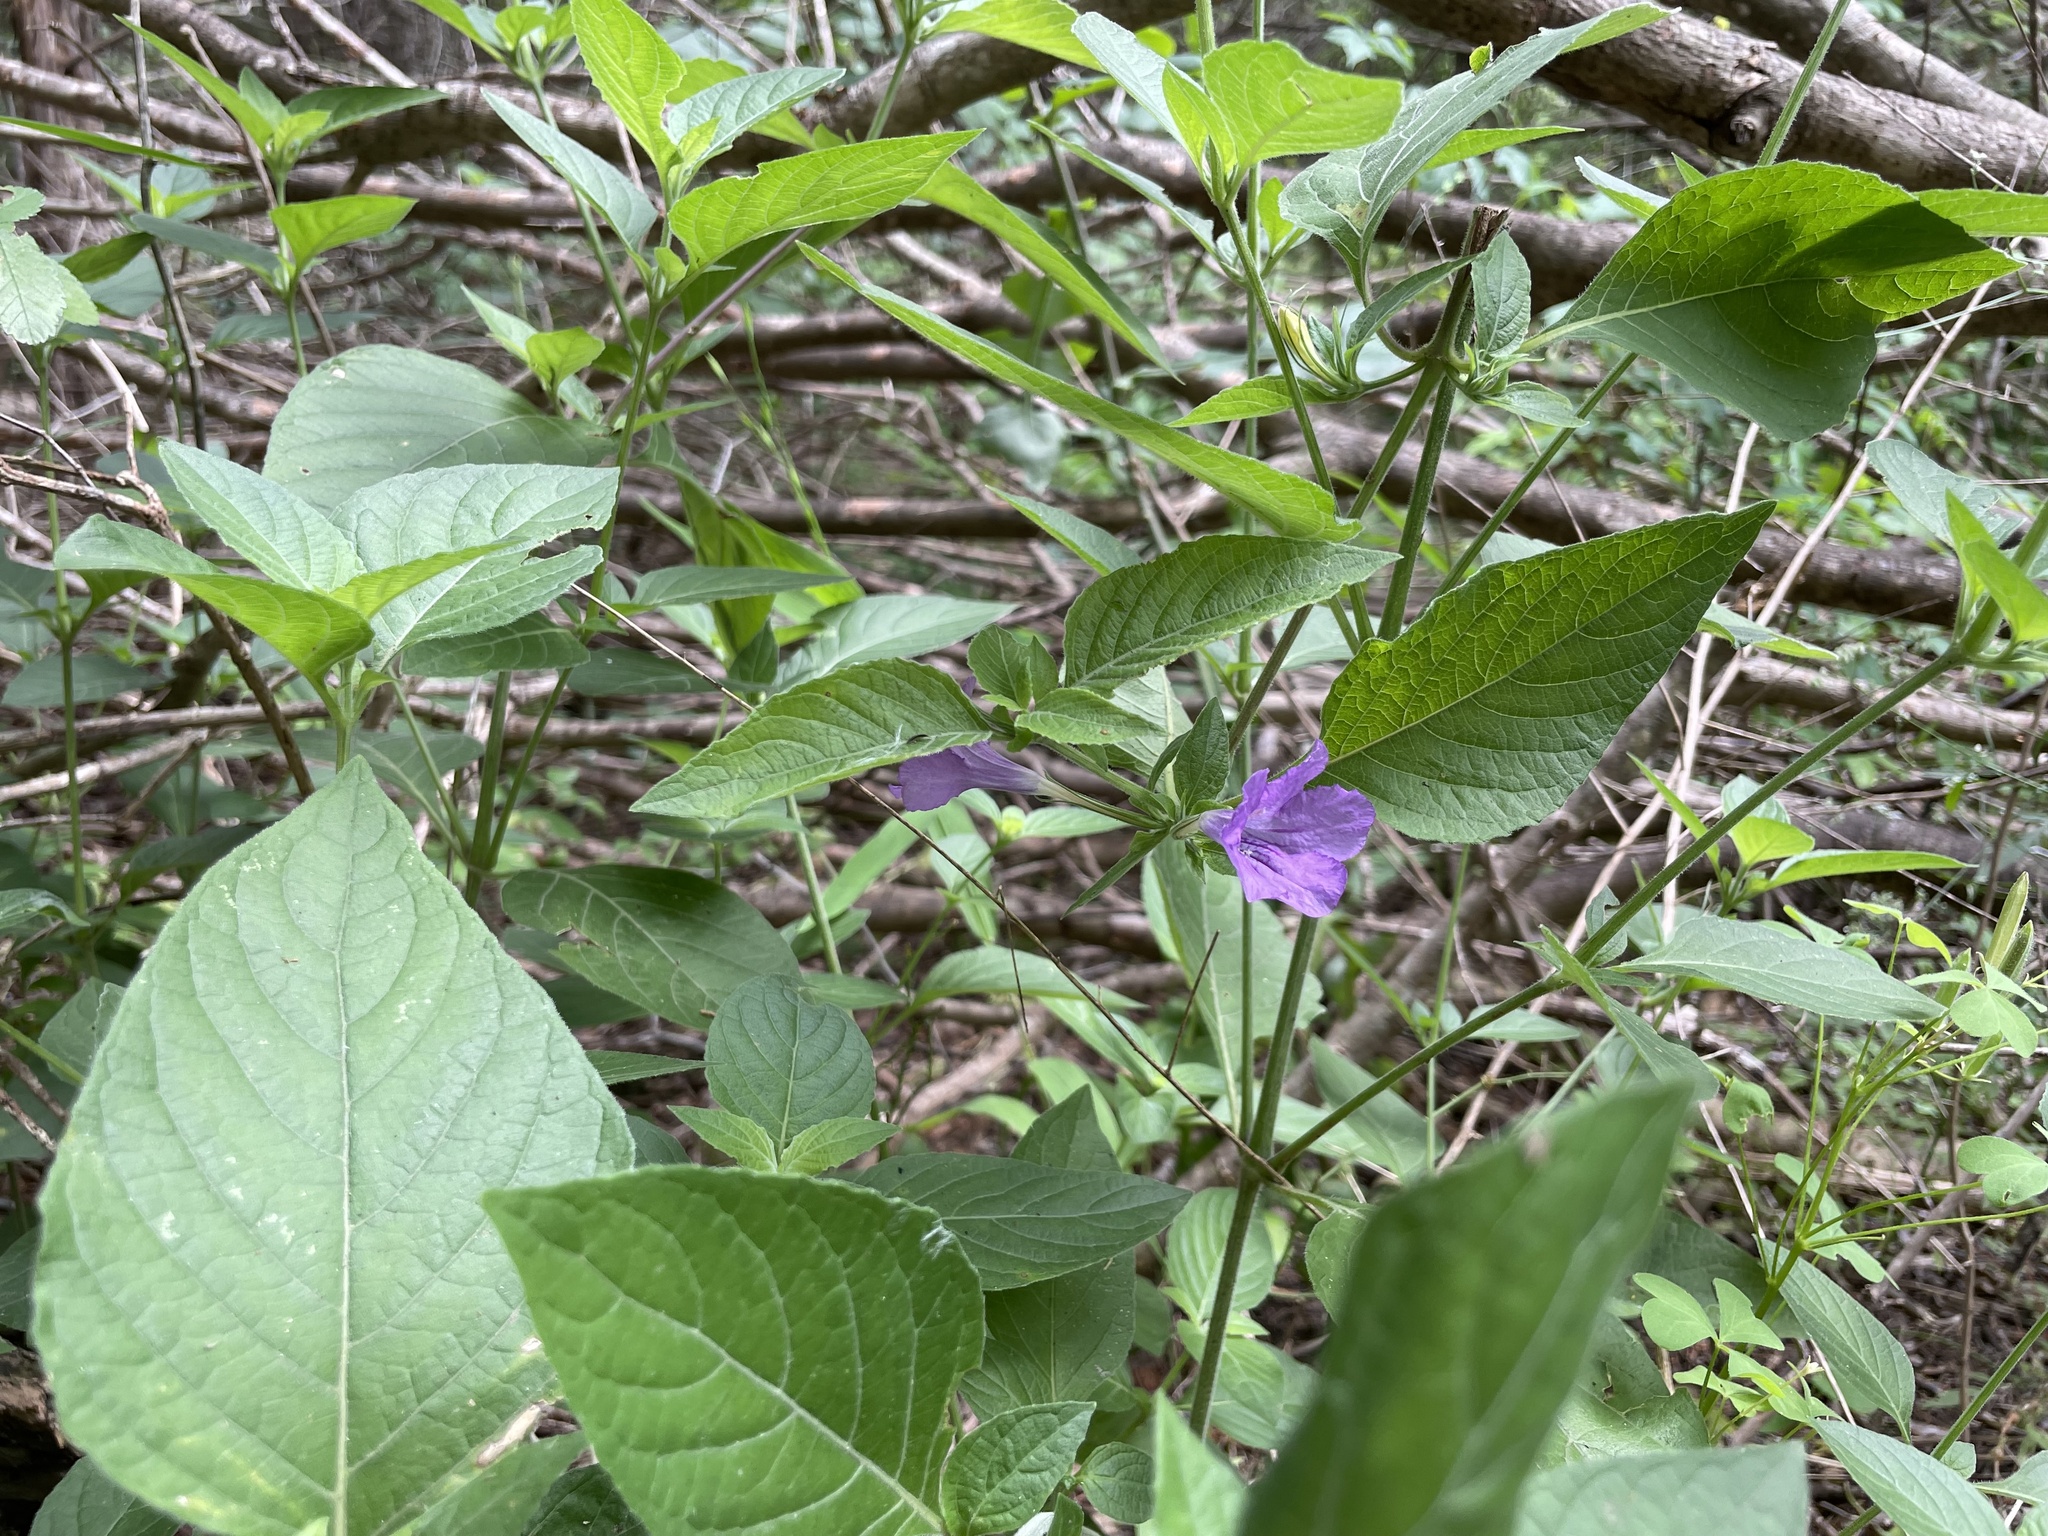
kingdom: Plantae
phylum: Tracheophyta
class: Magnoliopsida
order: Lamiales
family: Acanthaceae
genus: Ruellia
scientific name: Ruellia drummondiana
